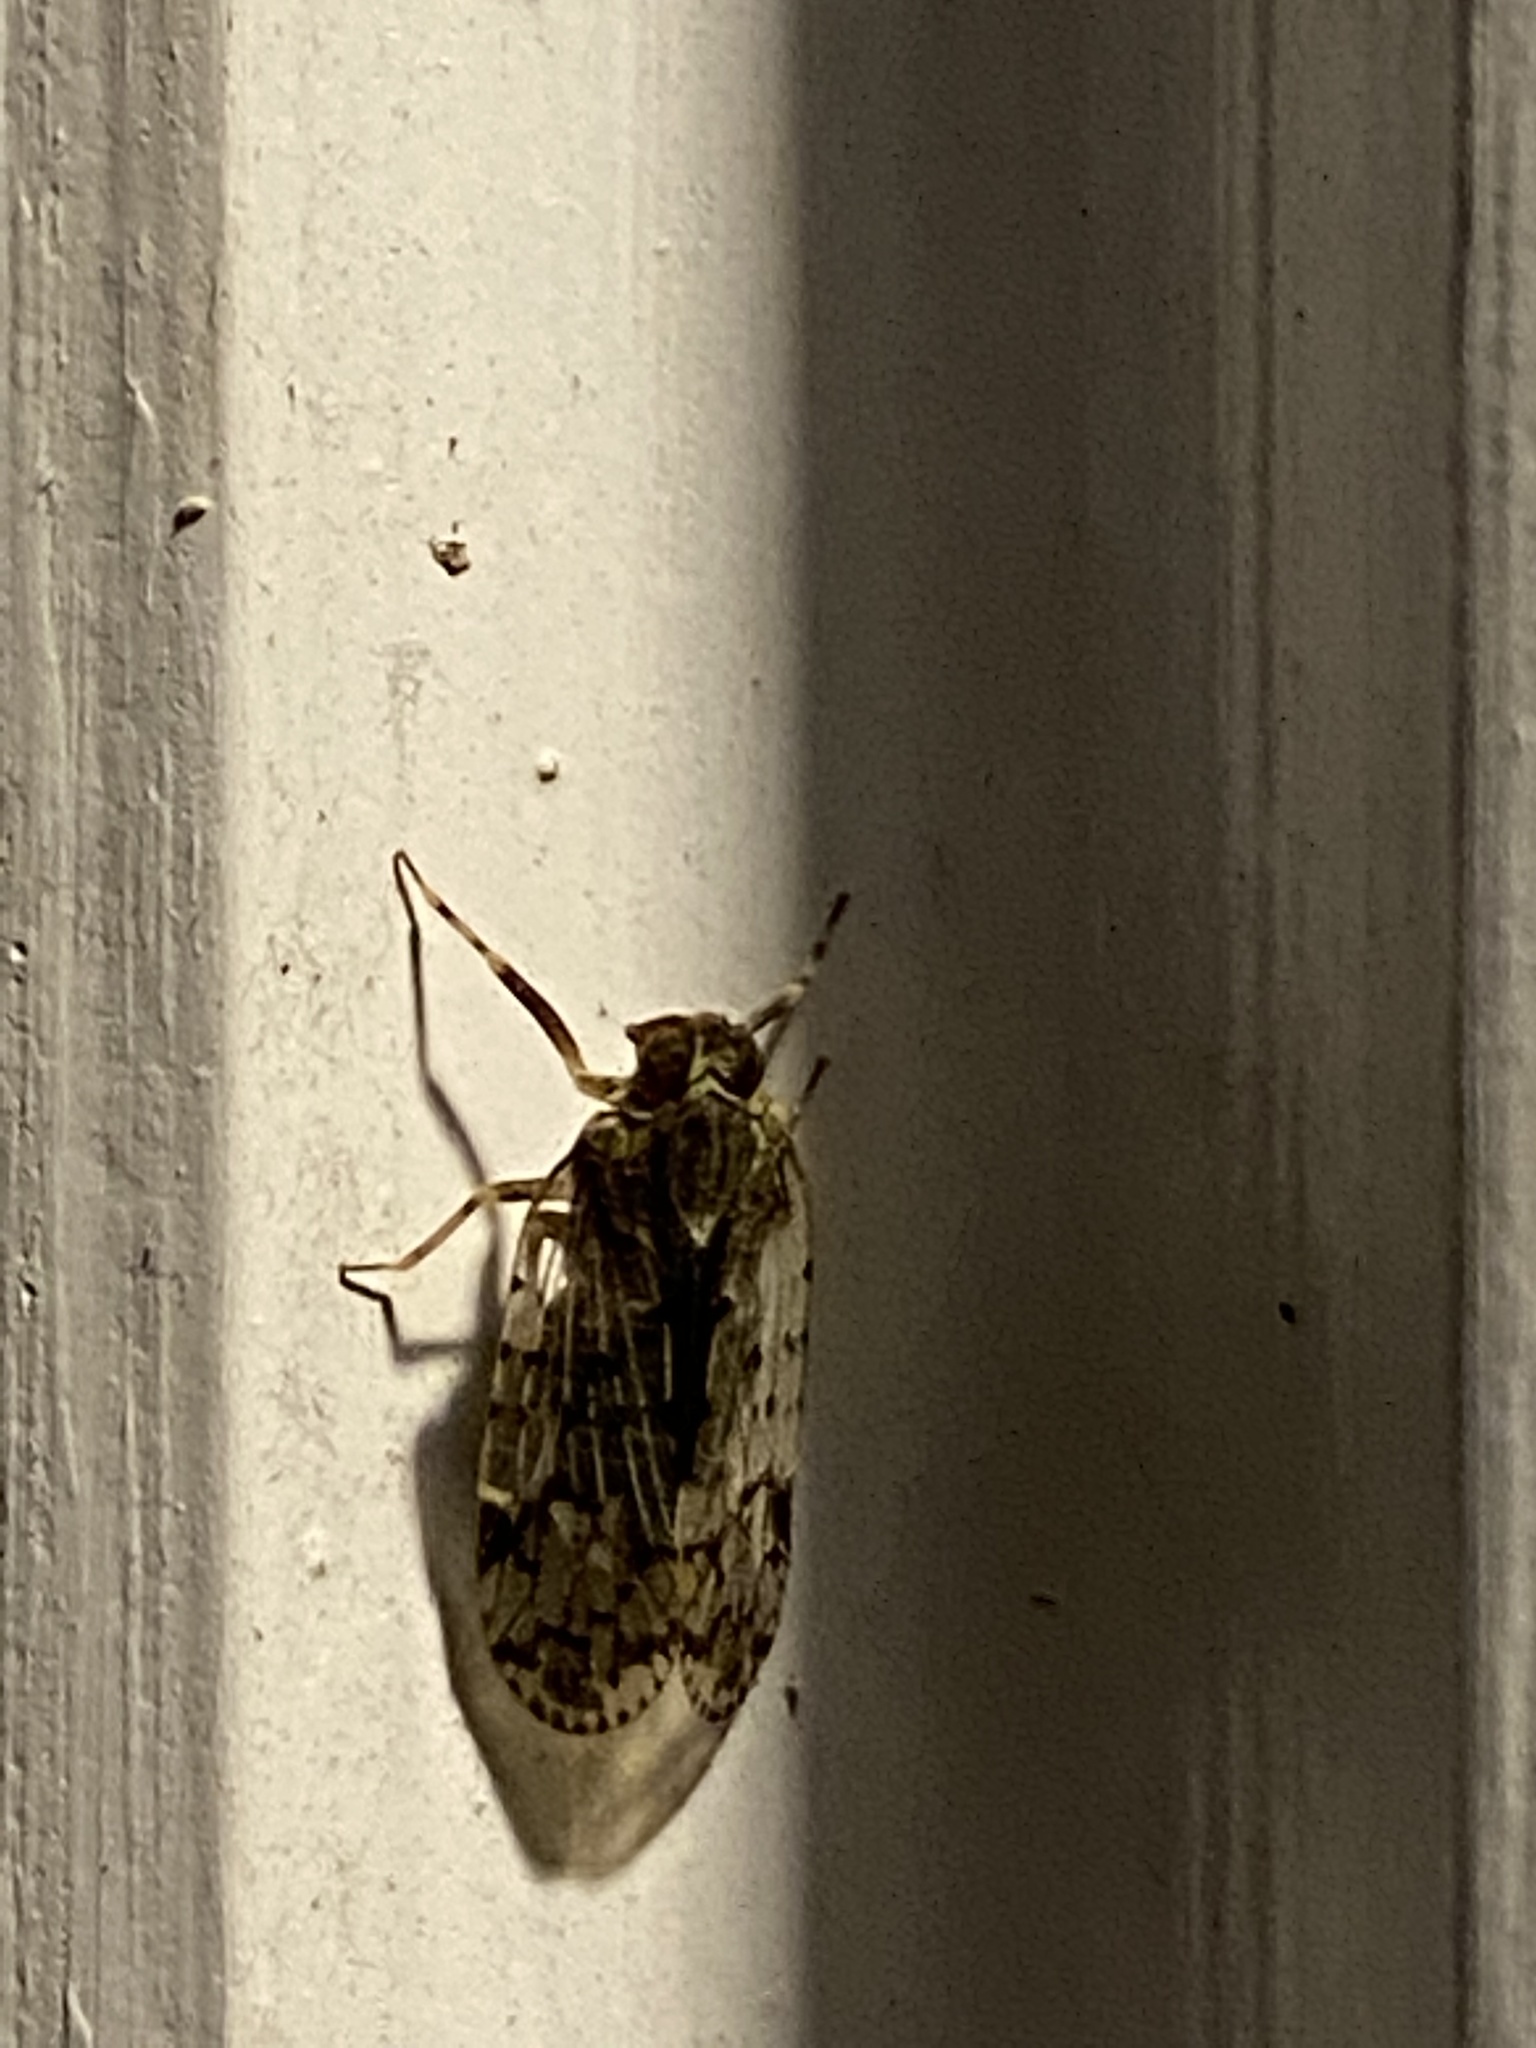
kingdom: Animalia
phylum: Arthropoda
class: Insecta
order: Hemiptera
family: Cixiidae
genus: Melanoliarus
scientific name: Melanoliarus placitus
